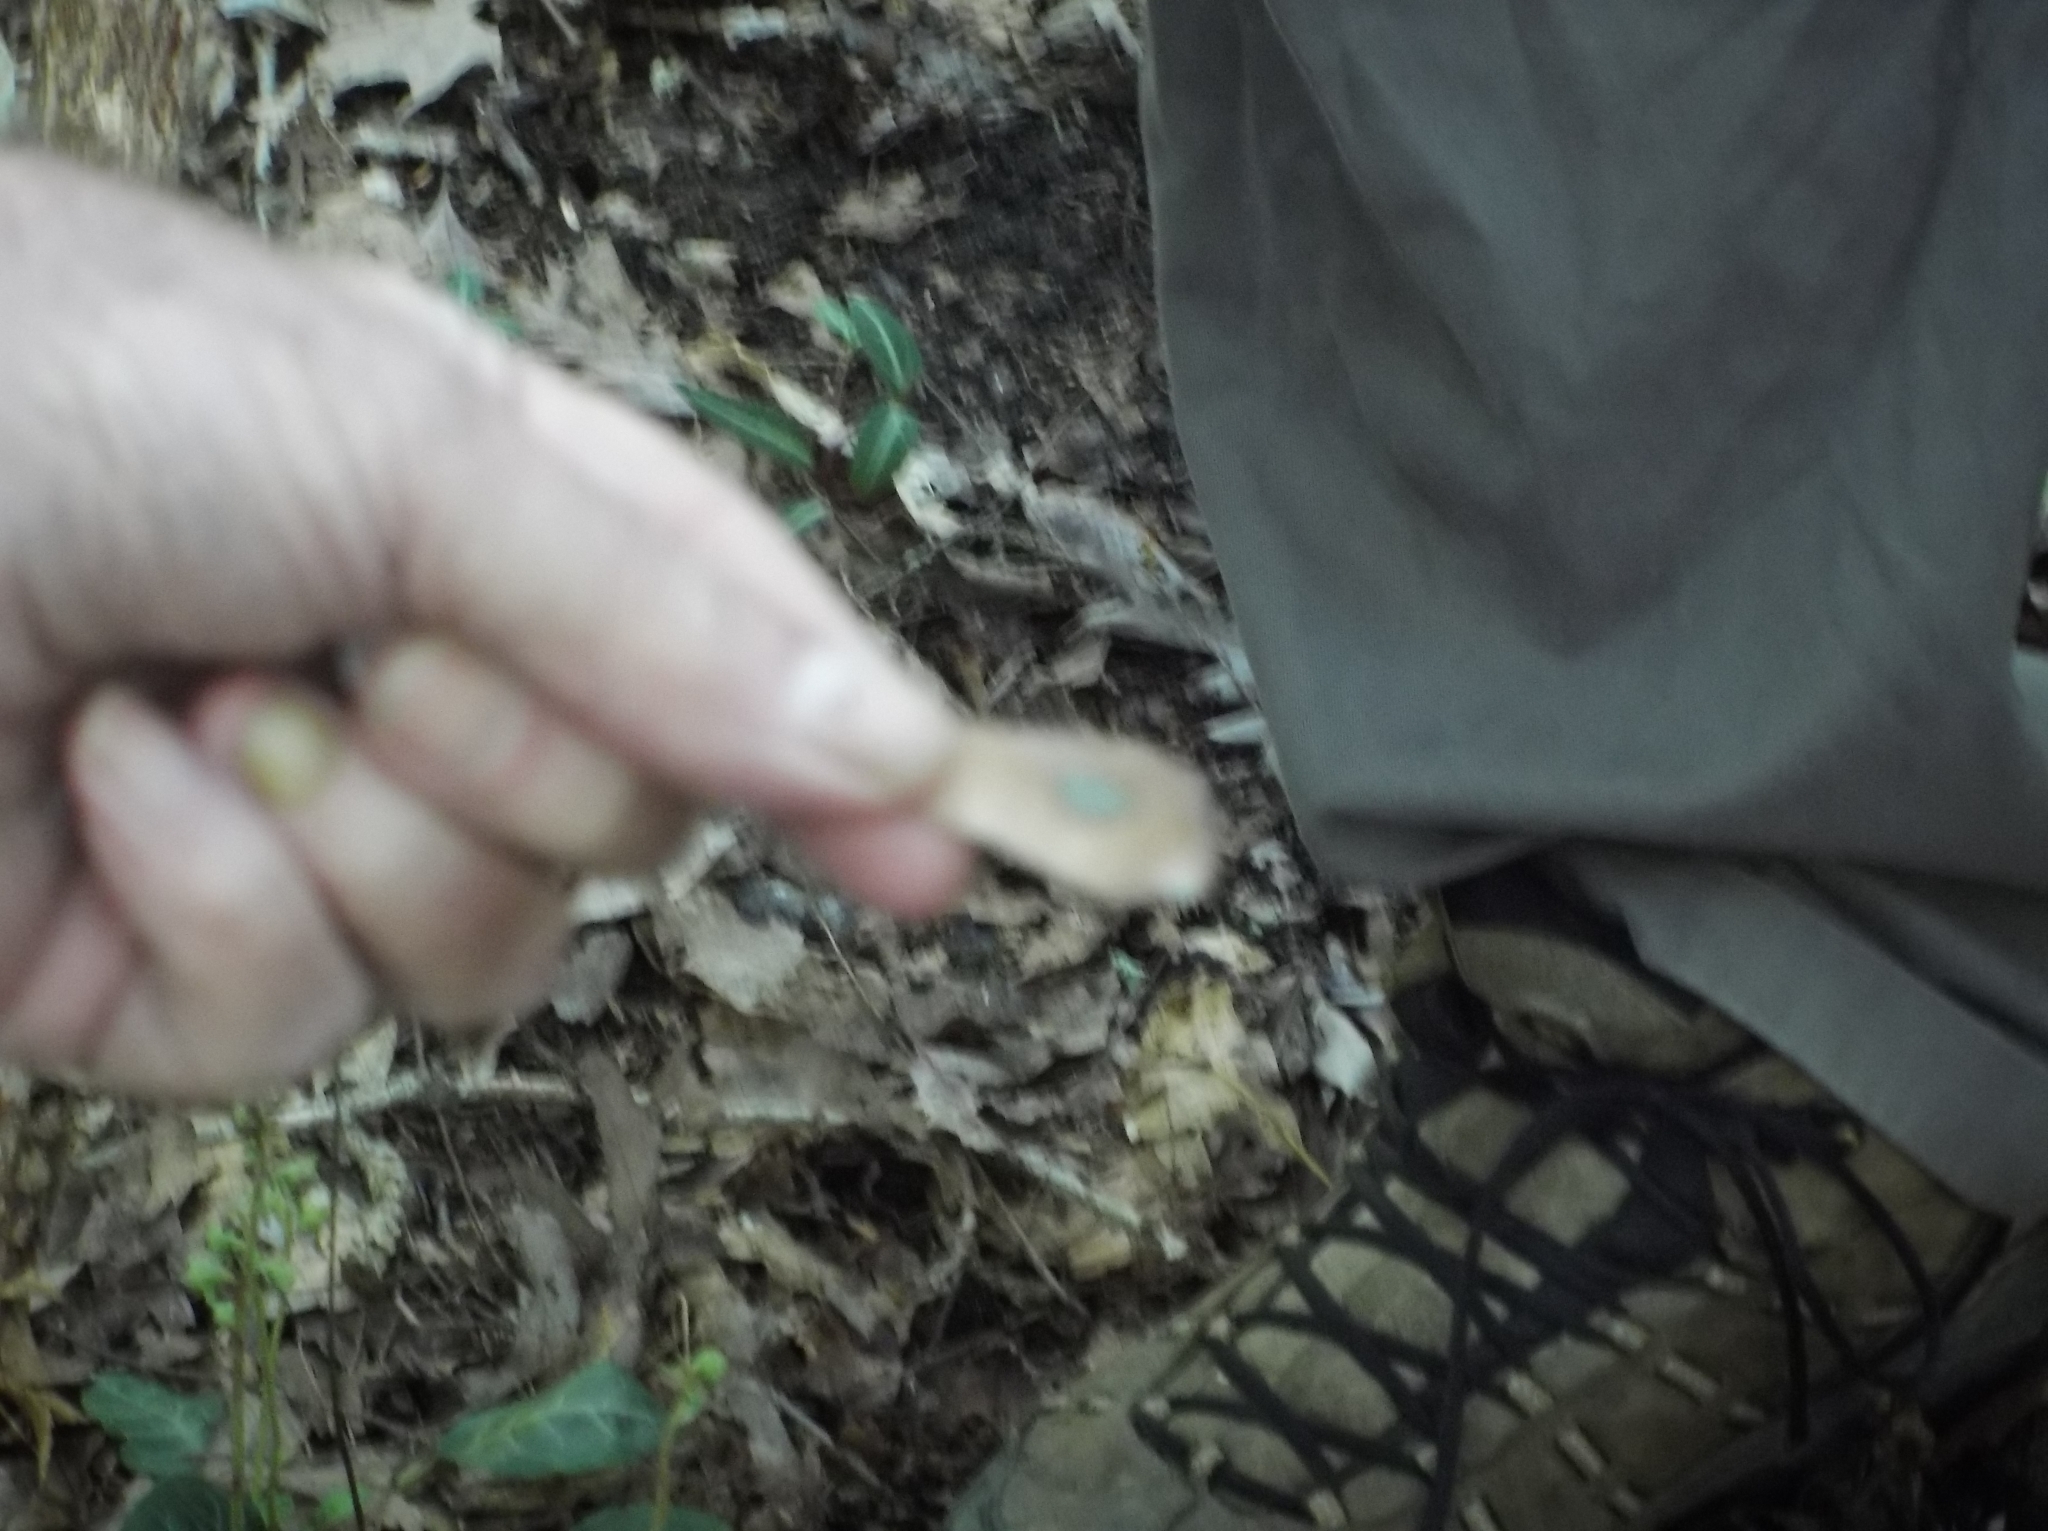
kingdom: Fungi
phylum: Basidiomycota
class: Agaricomycetes
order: Boletales
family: Boletaceae
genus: Xanthoconium
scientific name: Xanthoconium separans
